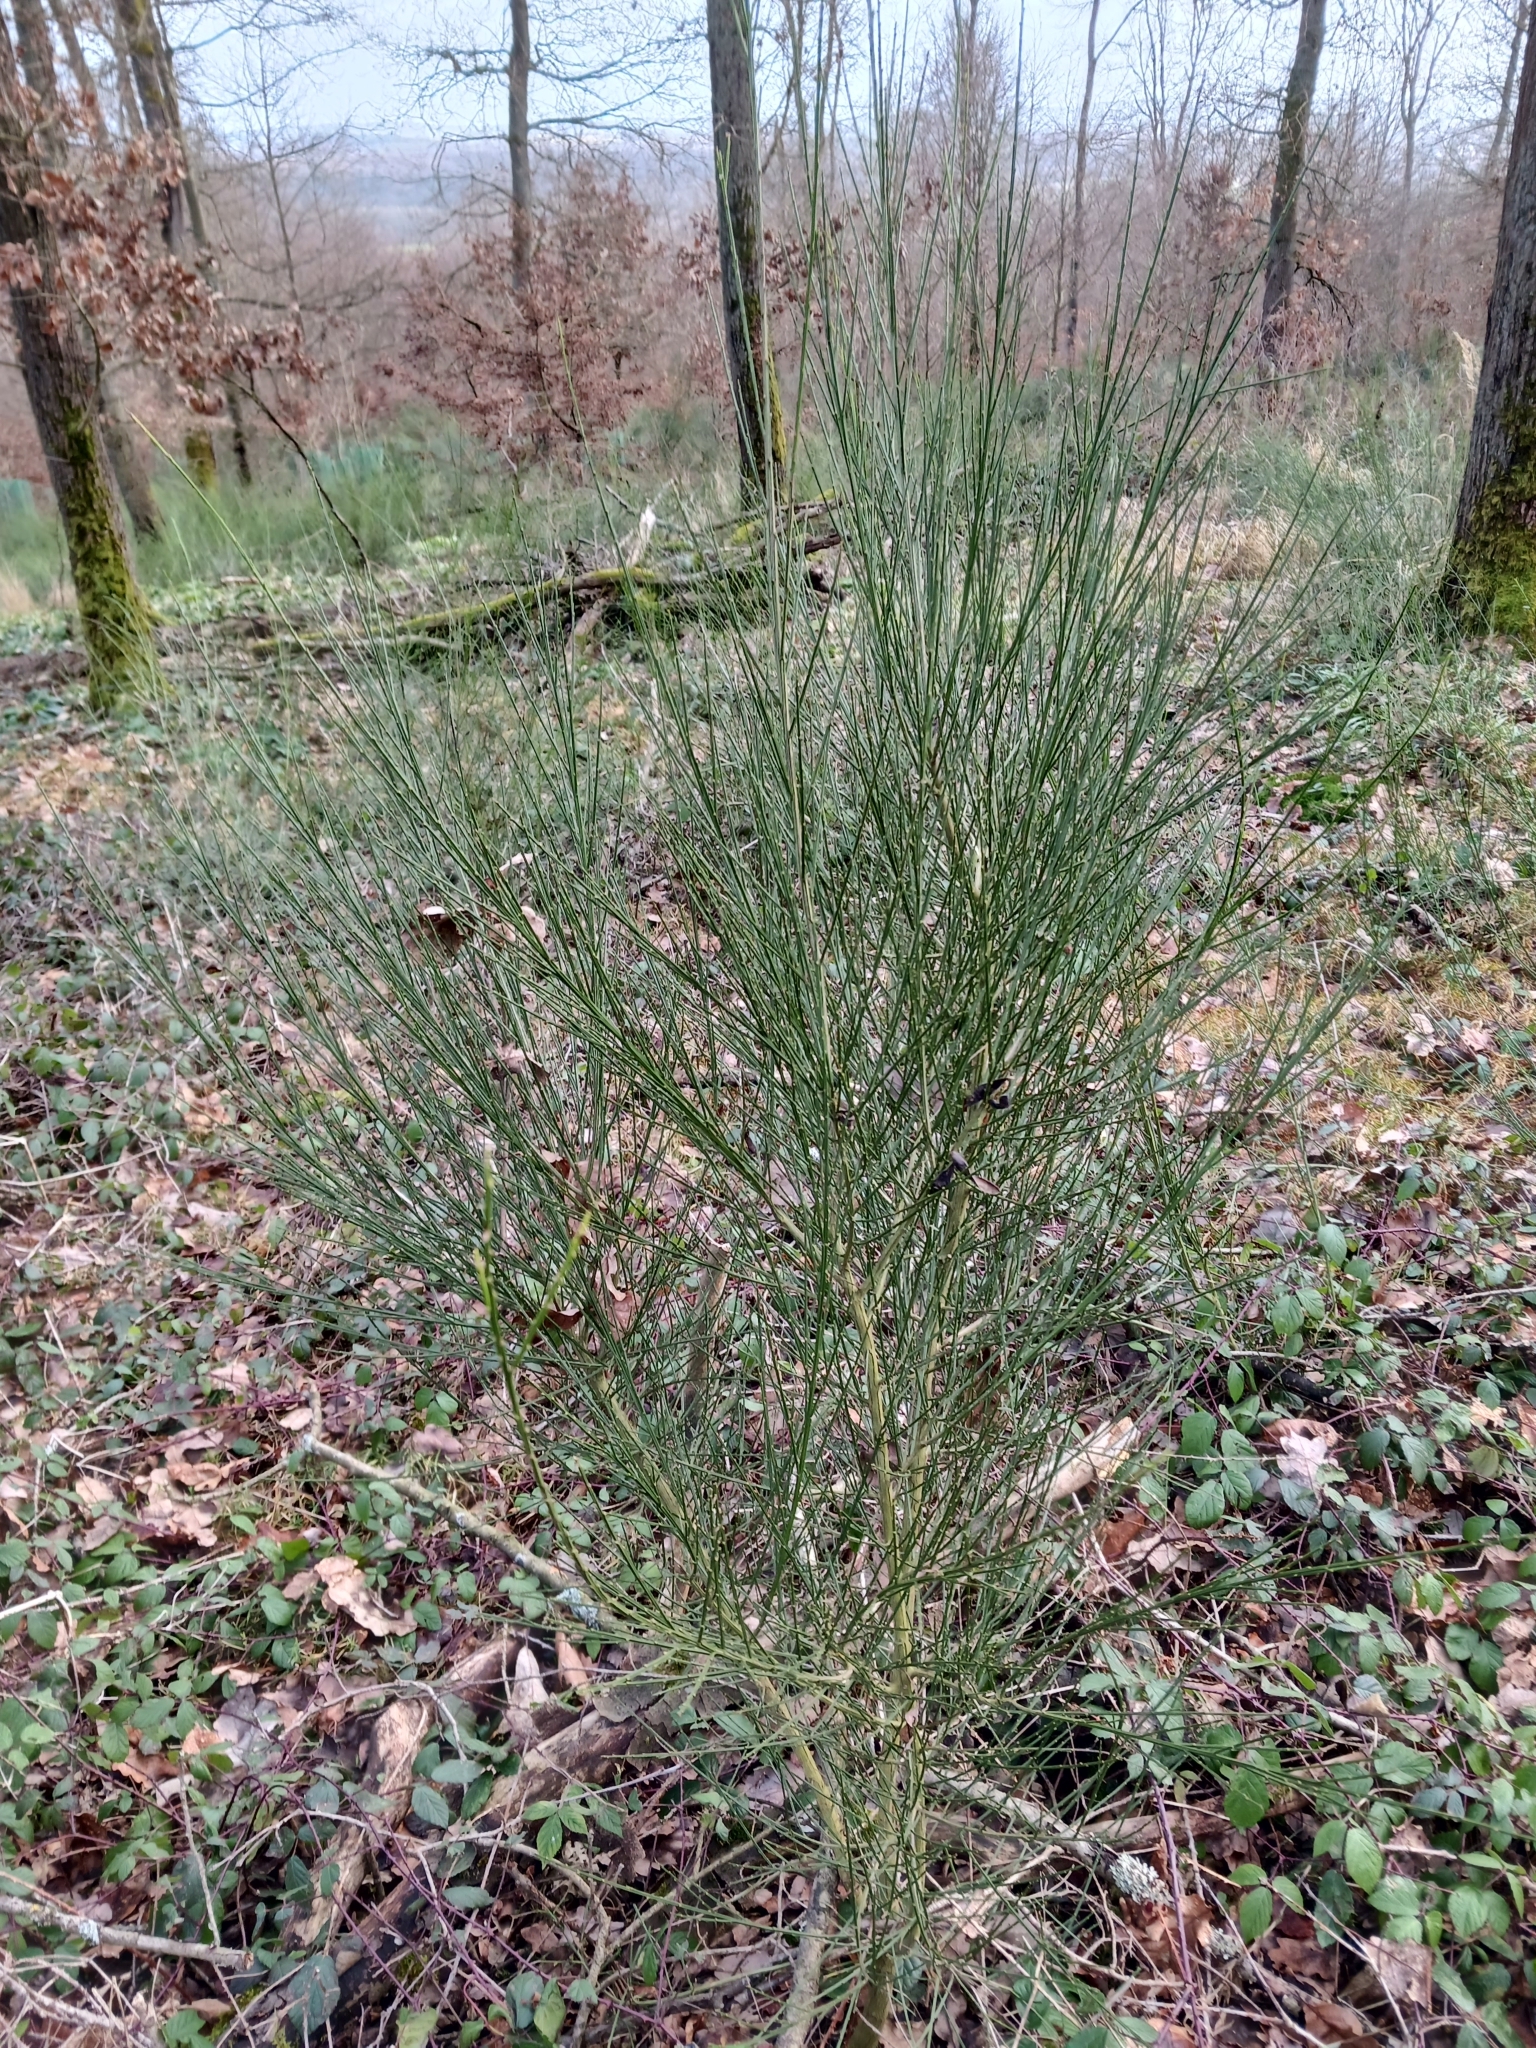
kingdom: Plantae
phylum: Tracheophyta
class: Magnoliopsida
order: Fabales
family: Fabaceae
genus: Cytisus
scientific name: Cytisus scoparius
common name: Scotch broom
